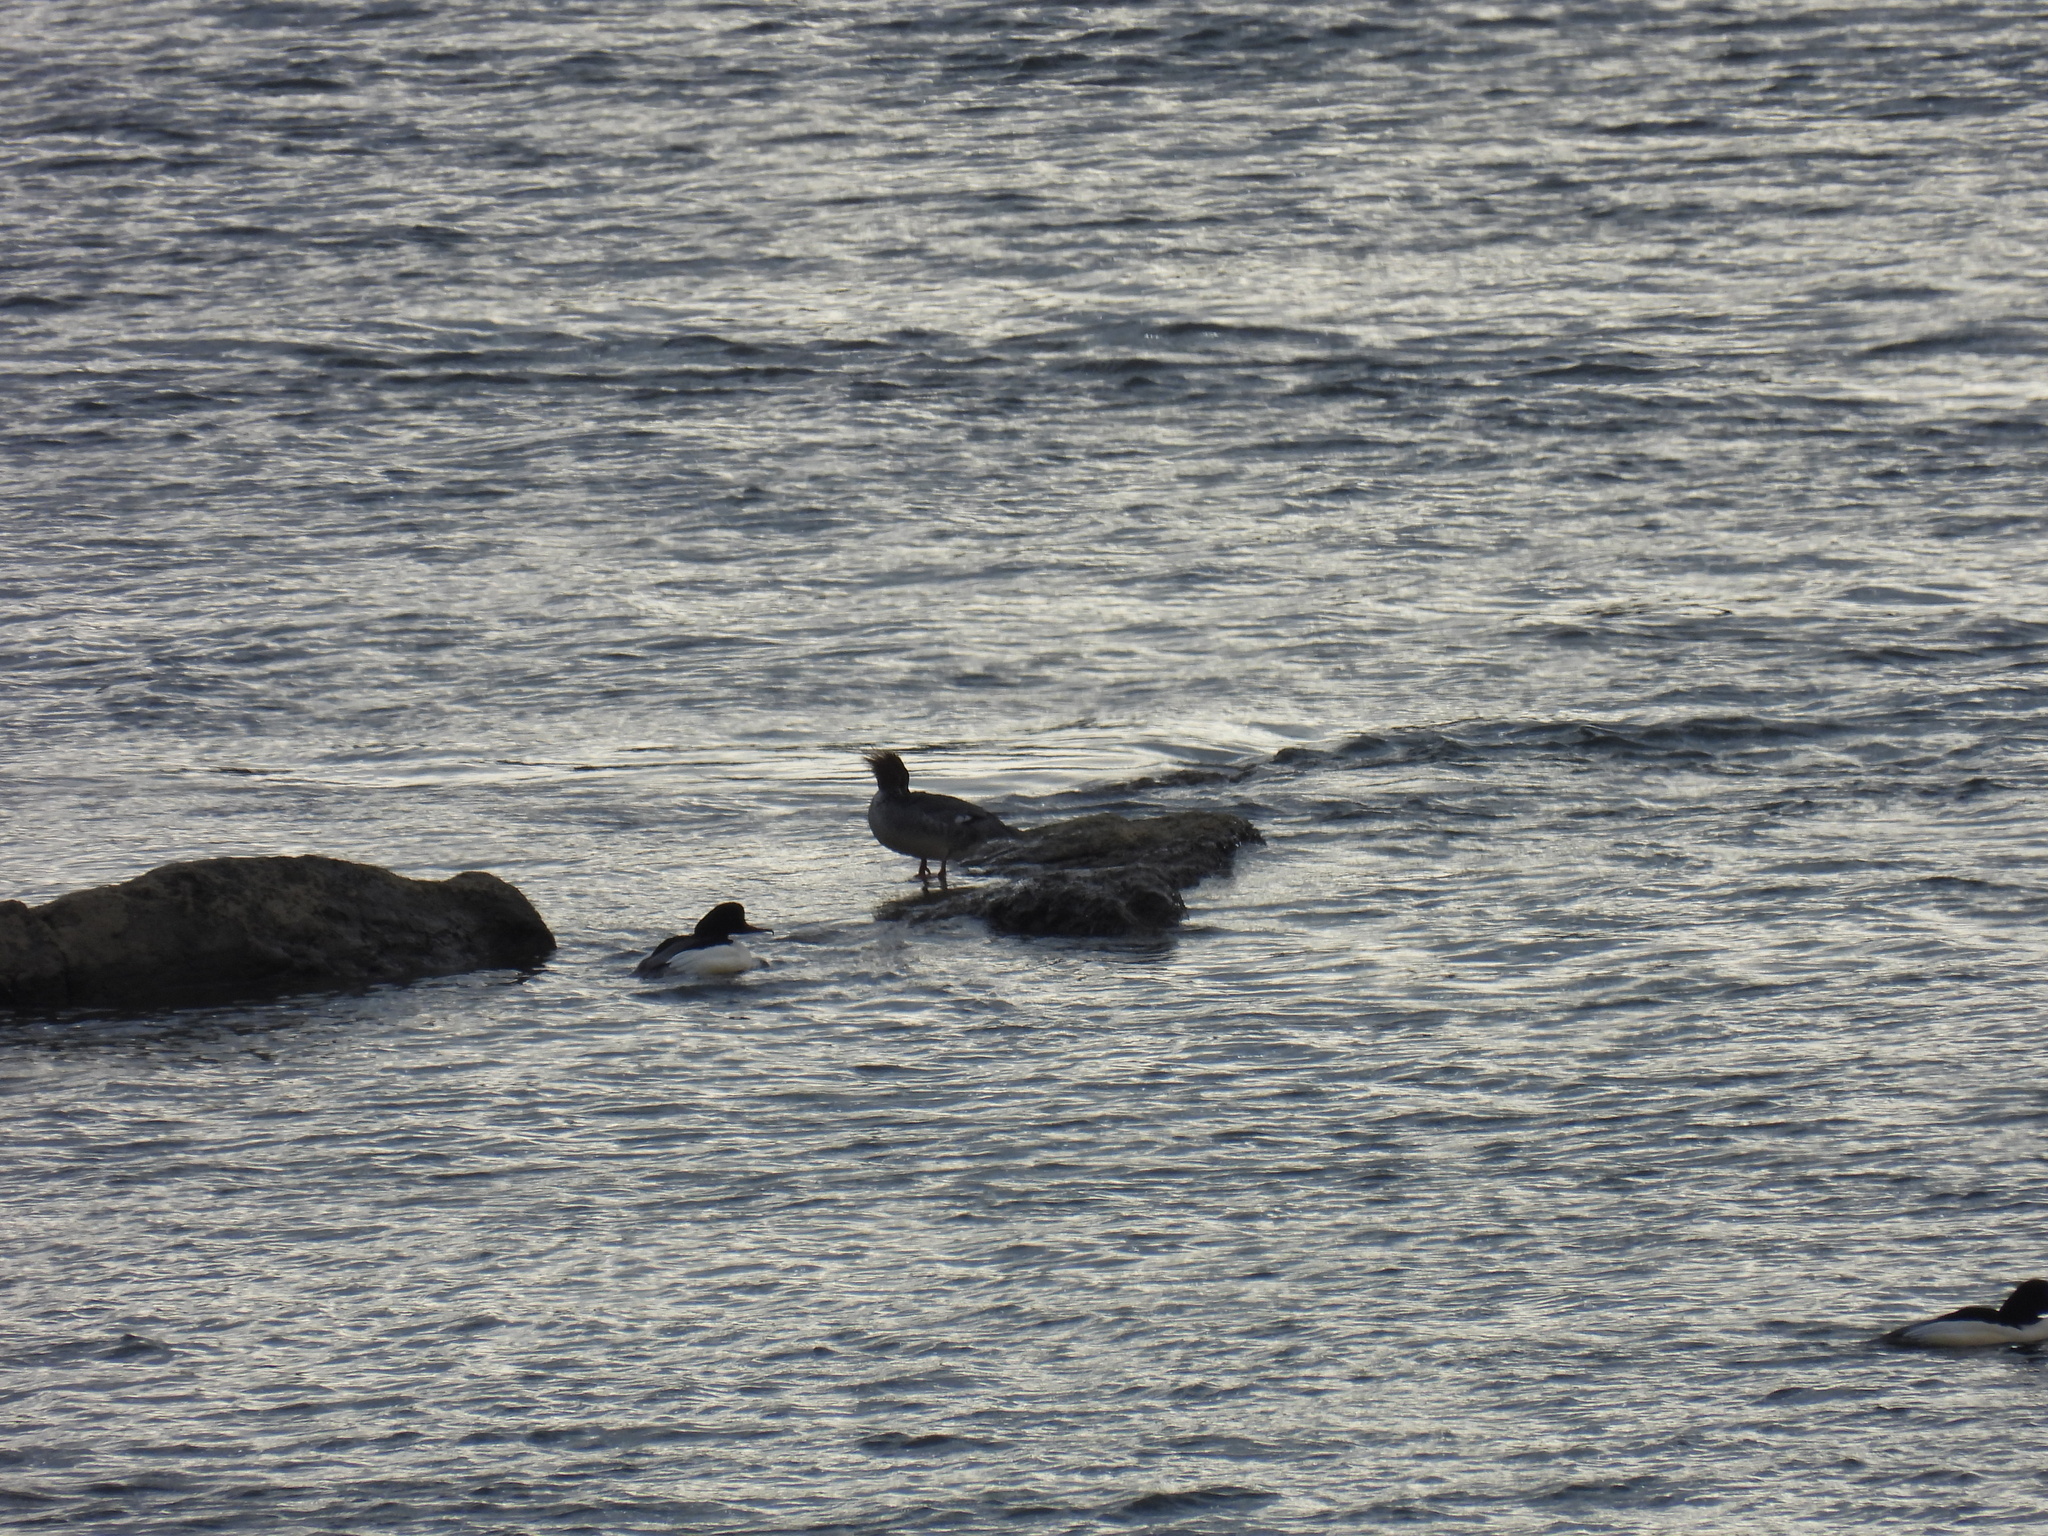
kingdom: Animalia
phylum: Chordata
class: Aves
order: Anseriformes
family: Anatidae
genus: Mergus
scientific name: Mergus merganser
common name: Common merganser
